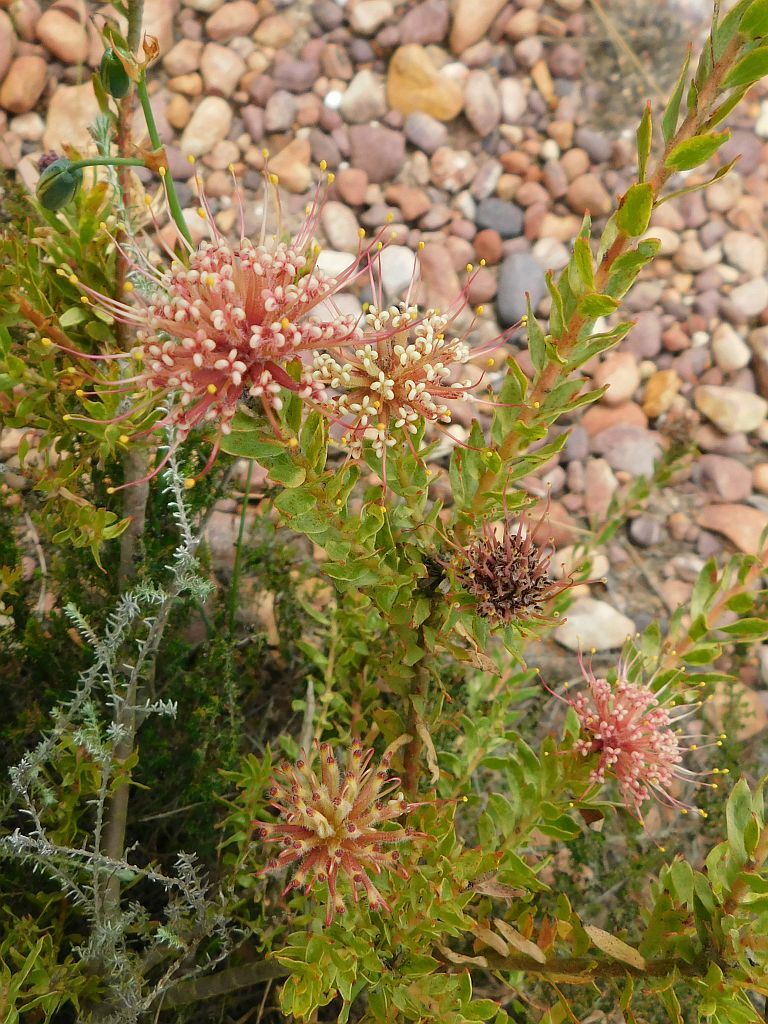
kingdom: Plantae
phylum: Tracheophyta
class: Magnoliopsida
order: Proteales
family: Proteaceae
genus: Leucospermum
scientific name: Leucospermum calligerum
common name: Arid pincushion
